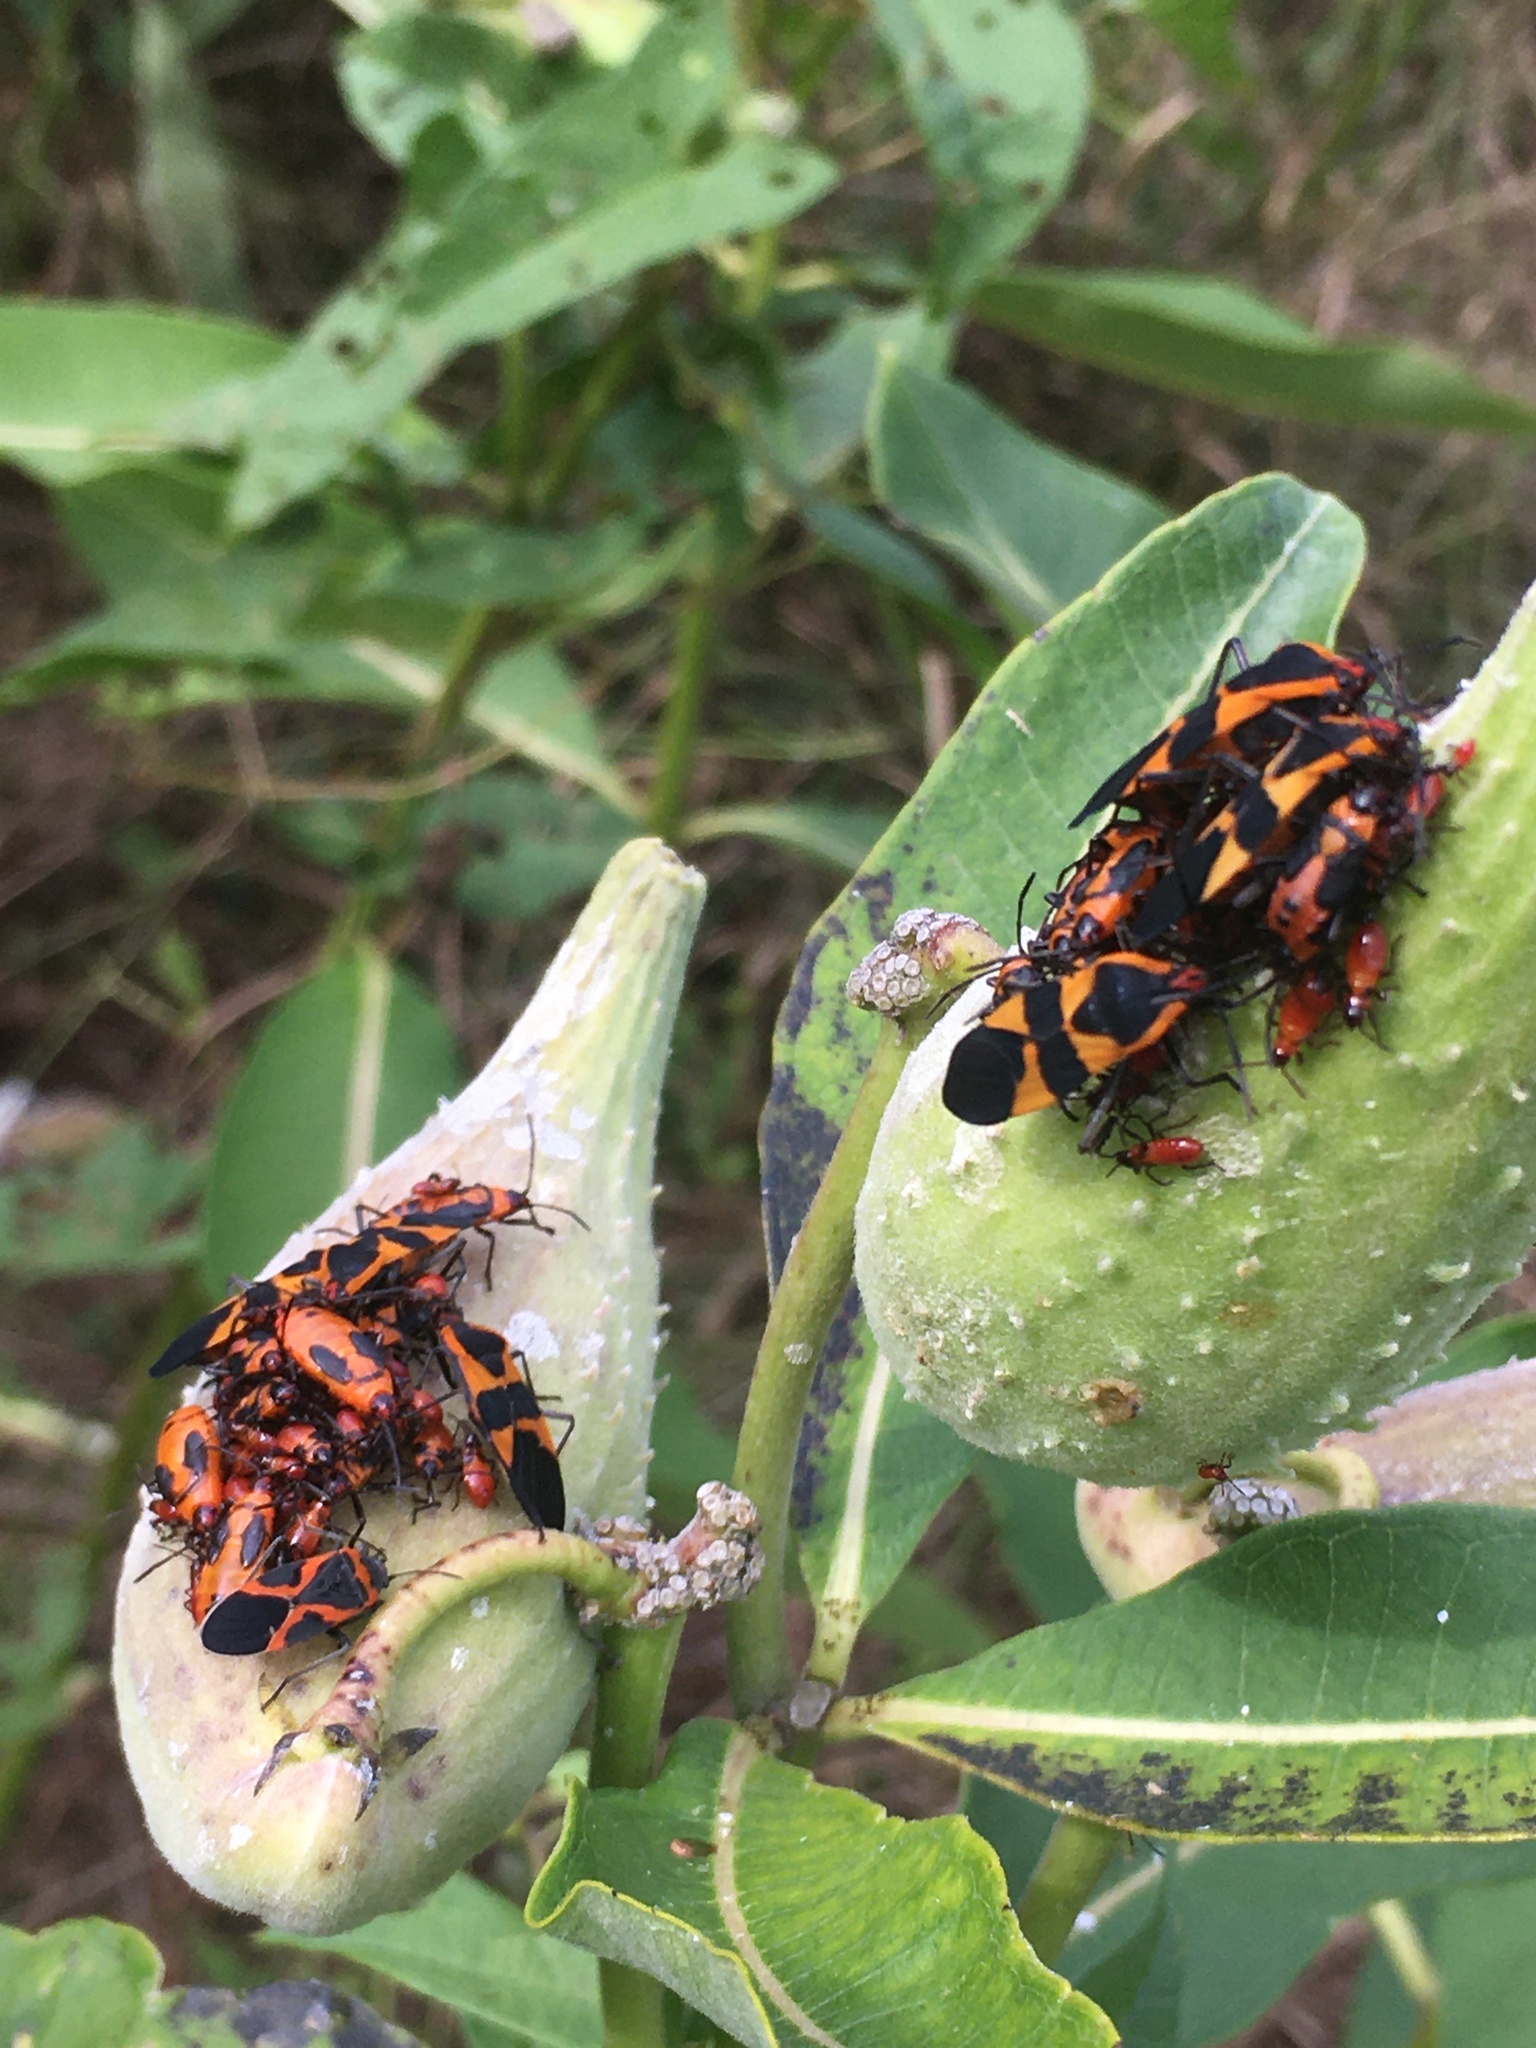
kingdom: Animalia
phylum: Arthropoda
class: Insecta
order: Hemiptera
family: Lygaeidae
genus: Oncopeltus
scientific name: Oncopeltus fasciatus
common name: Large milkweed bug
